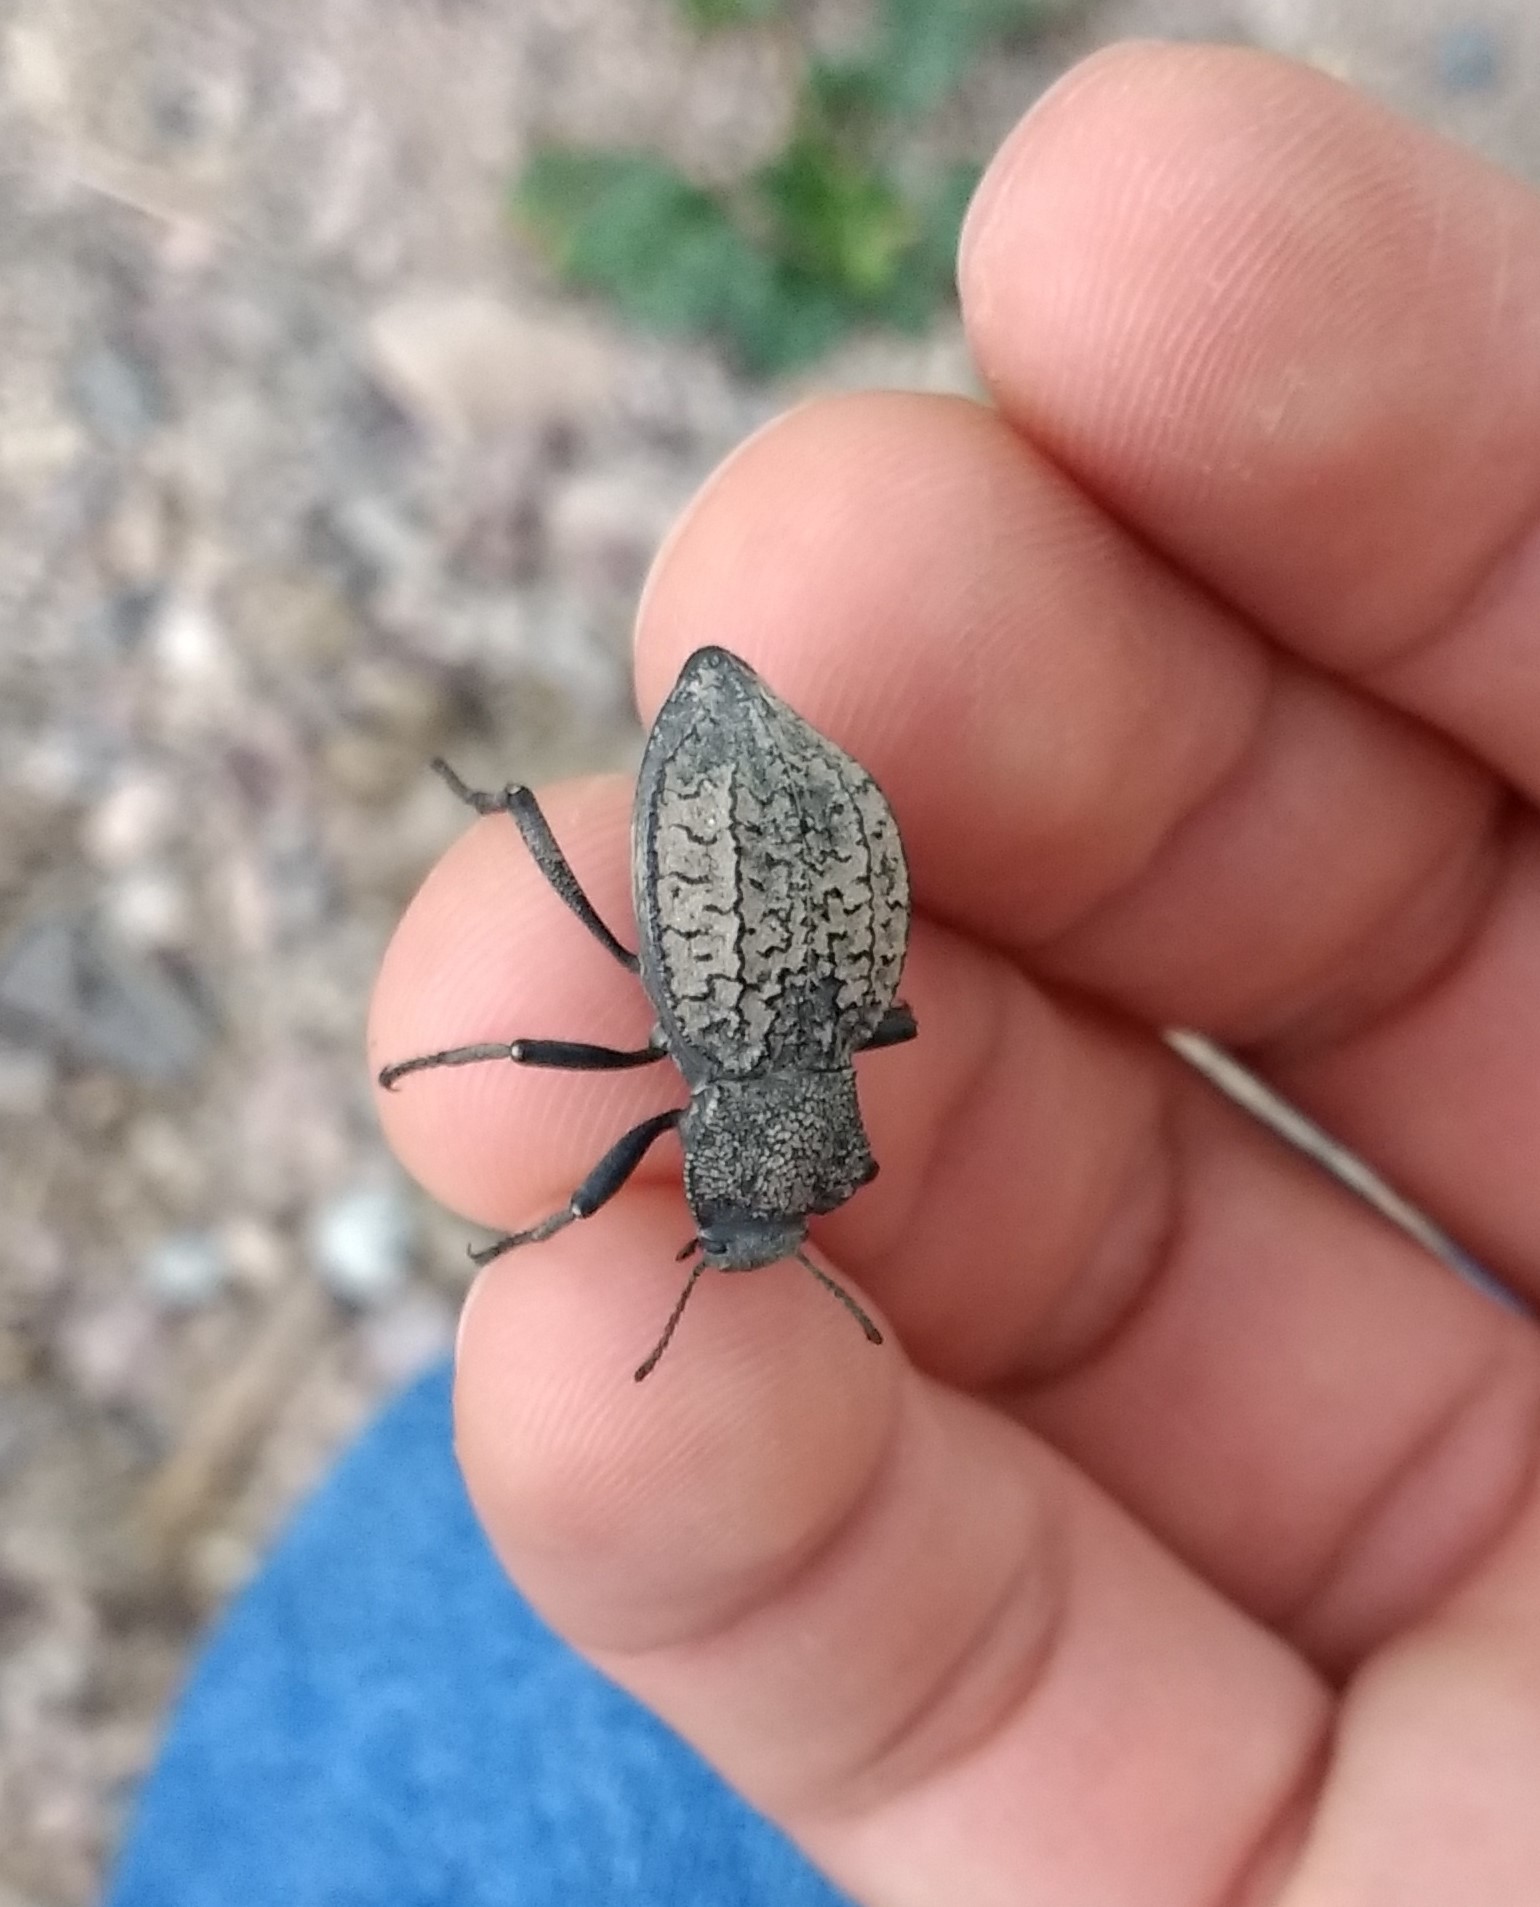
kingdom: Animalia
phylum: Arthropoda
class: Insecta
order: Coleoptera
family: Tenebrionidae
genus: Philolithus
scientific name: Philolithus morbillosus
